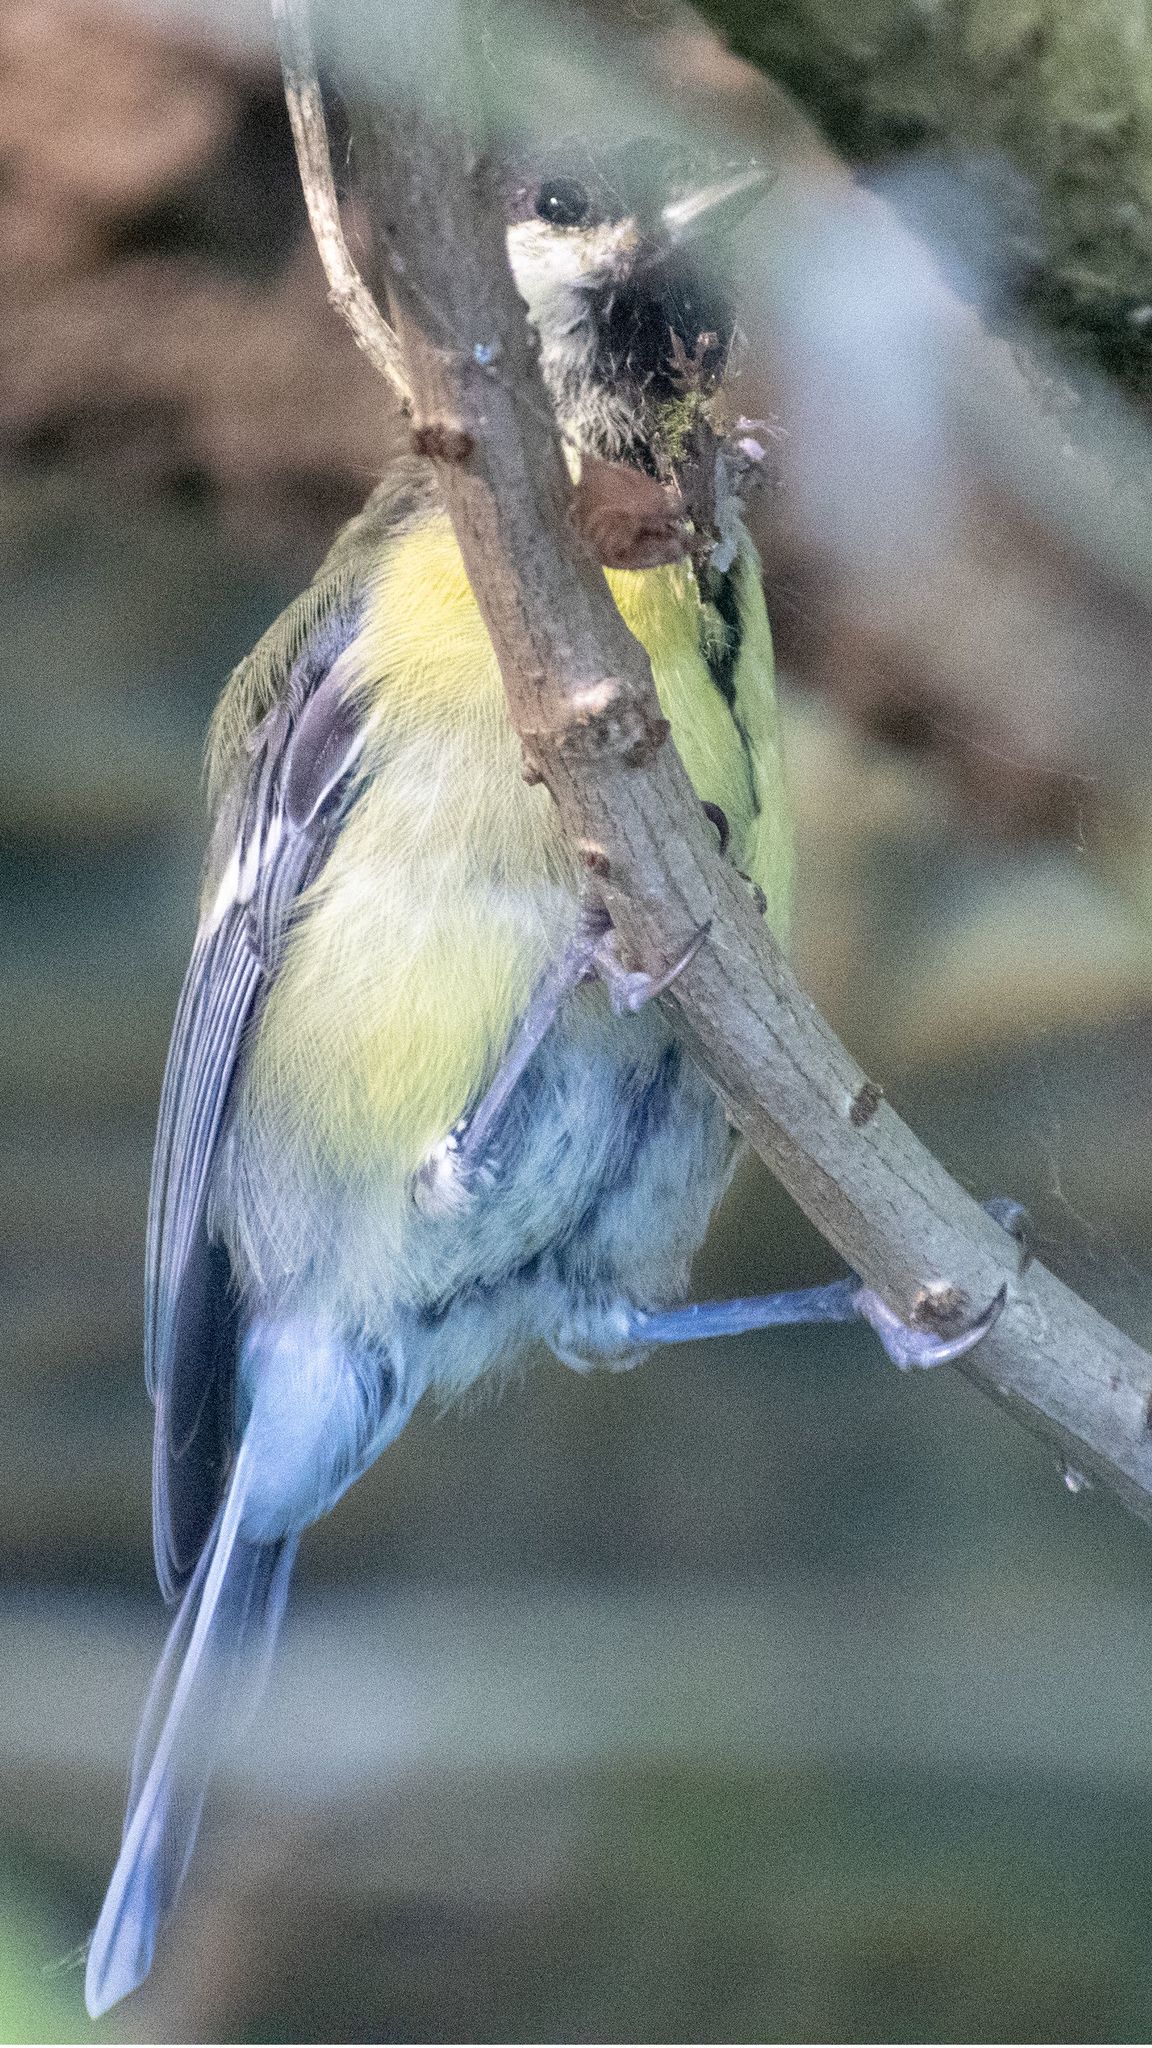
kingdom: Animalia
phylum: Chordata
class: Aves
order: Passeriformes
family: Paridae
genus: Parus
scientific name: Parus major
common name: Great tit
